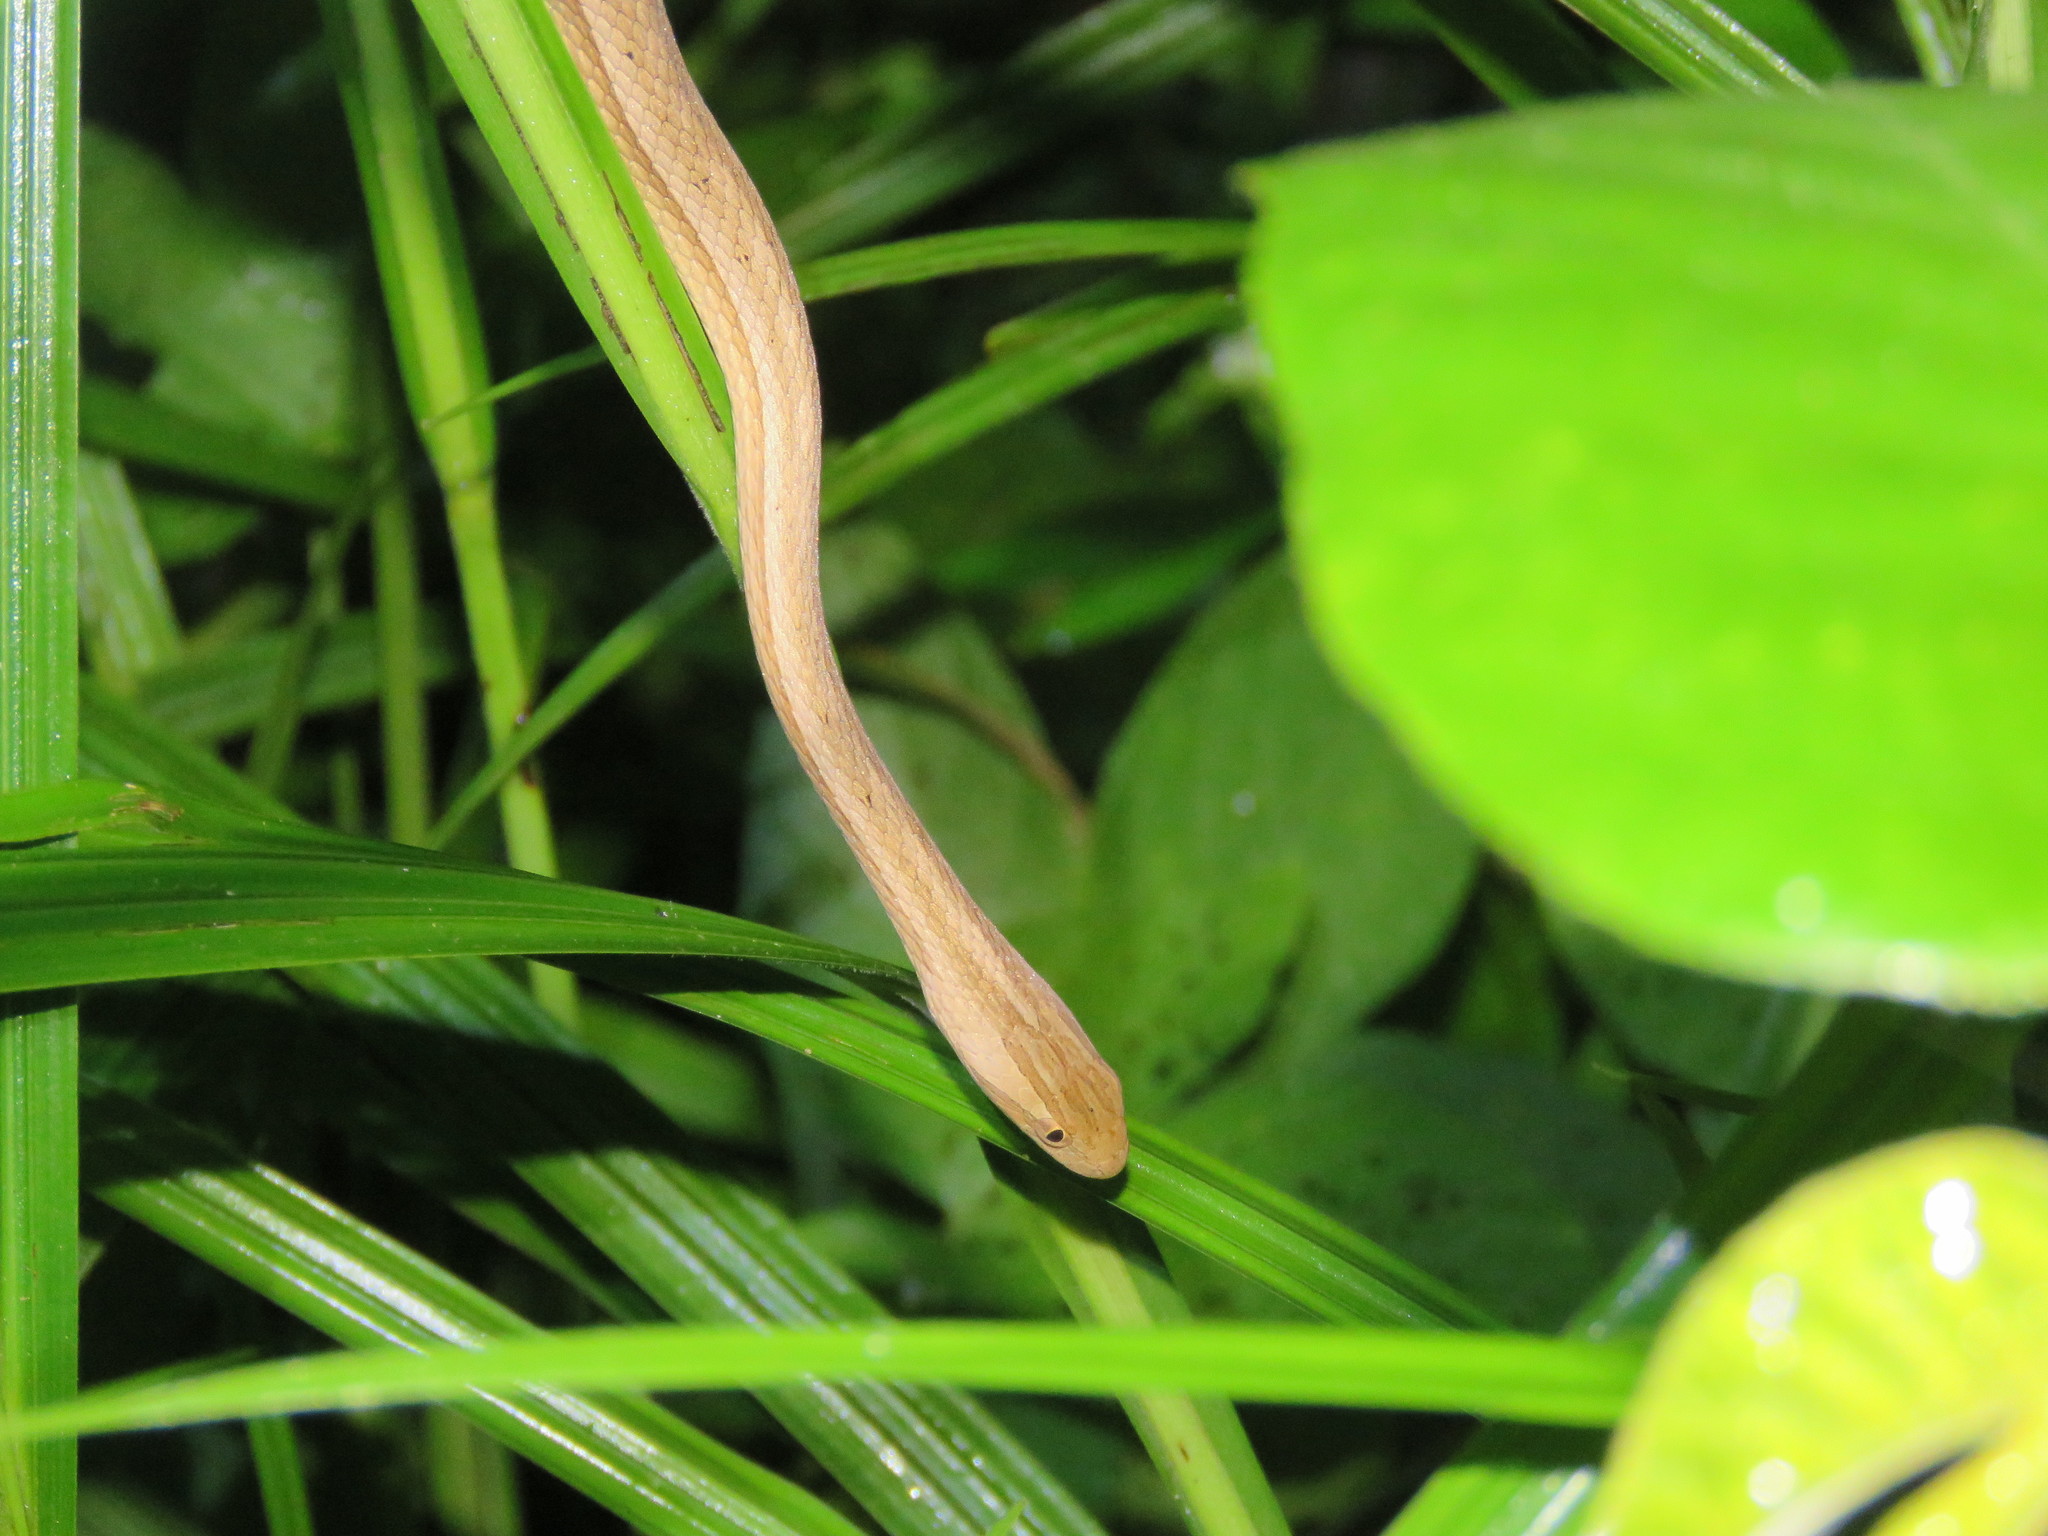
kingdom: Animalia
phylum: Chordata
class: Squamata
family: Colubridae
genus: Thamnodynastes
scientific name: Thamnodynastes pallidus
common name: Amazon coastal house snake
